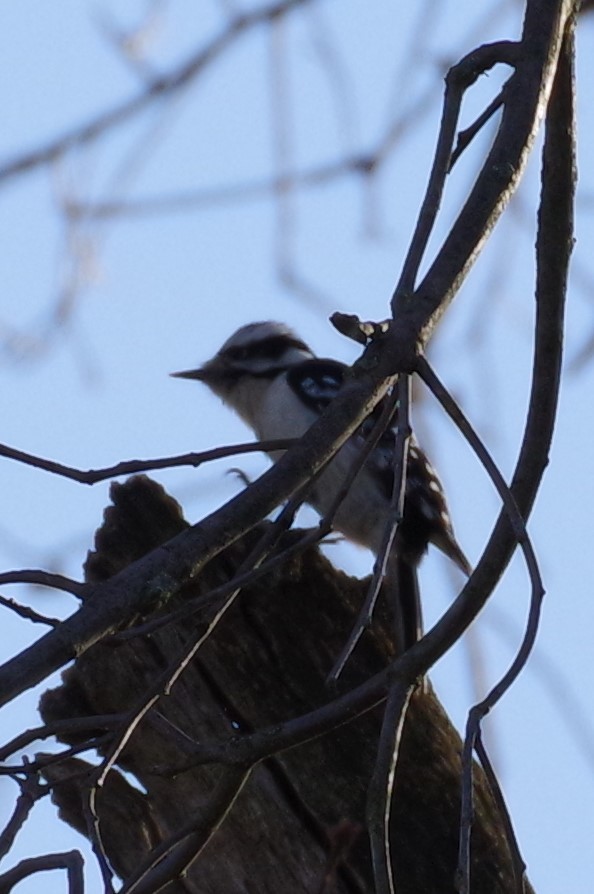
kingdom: Animalia
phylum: Chordata
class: Aves
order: Piciformes
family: Picidae
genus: Dryobates
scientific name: Dryobates pubescens
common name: Downy woodpecker
